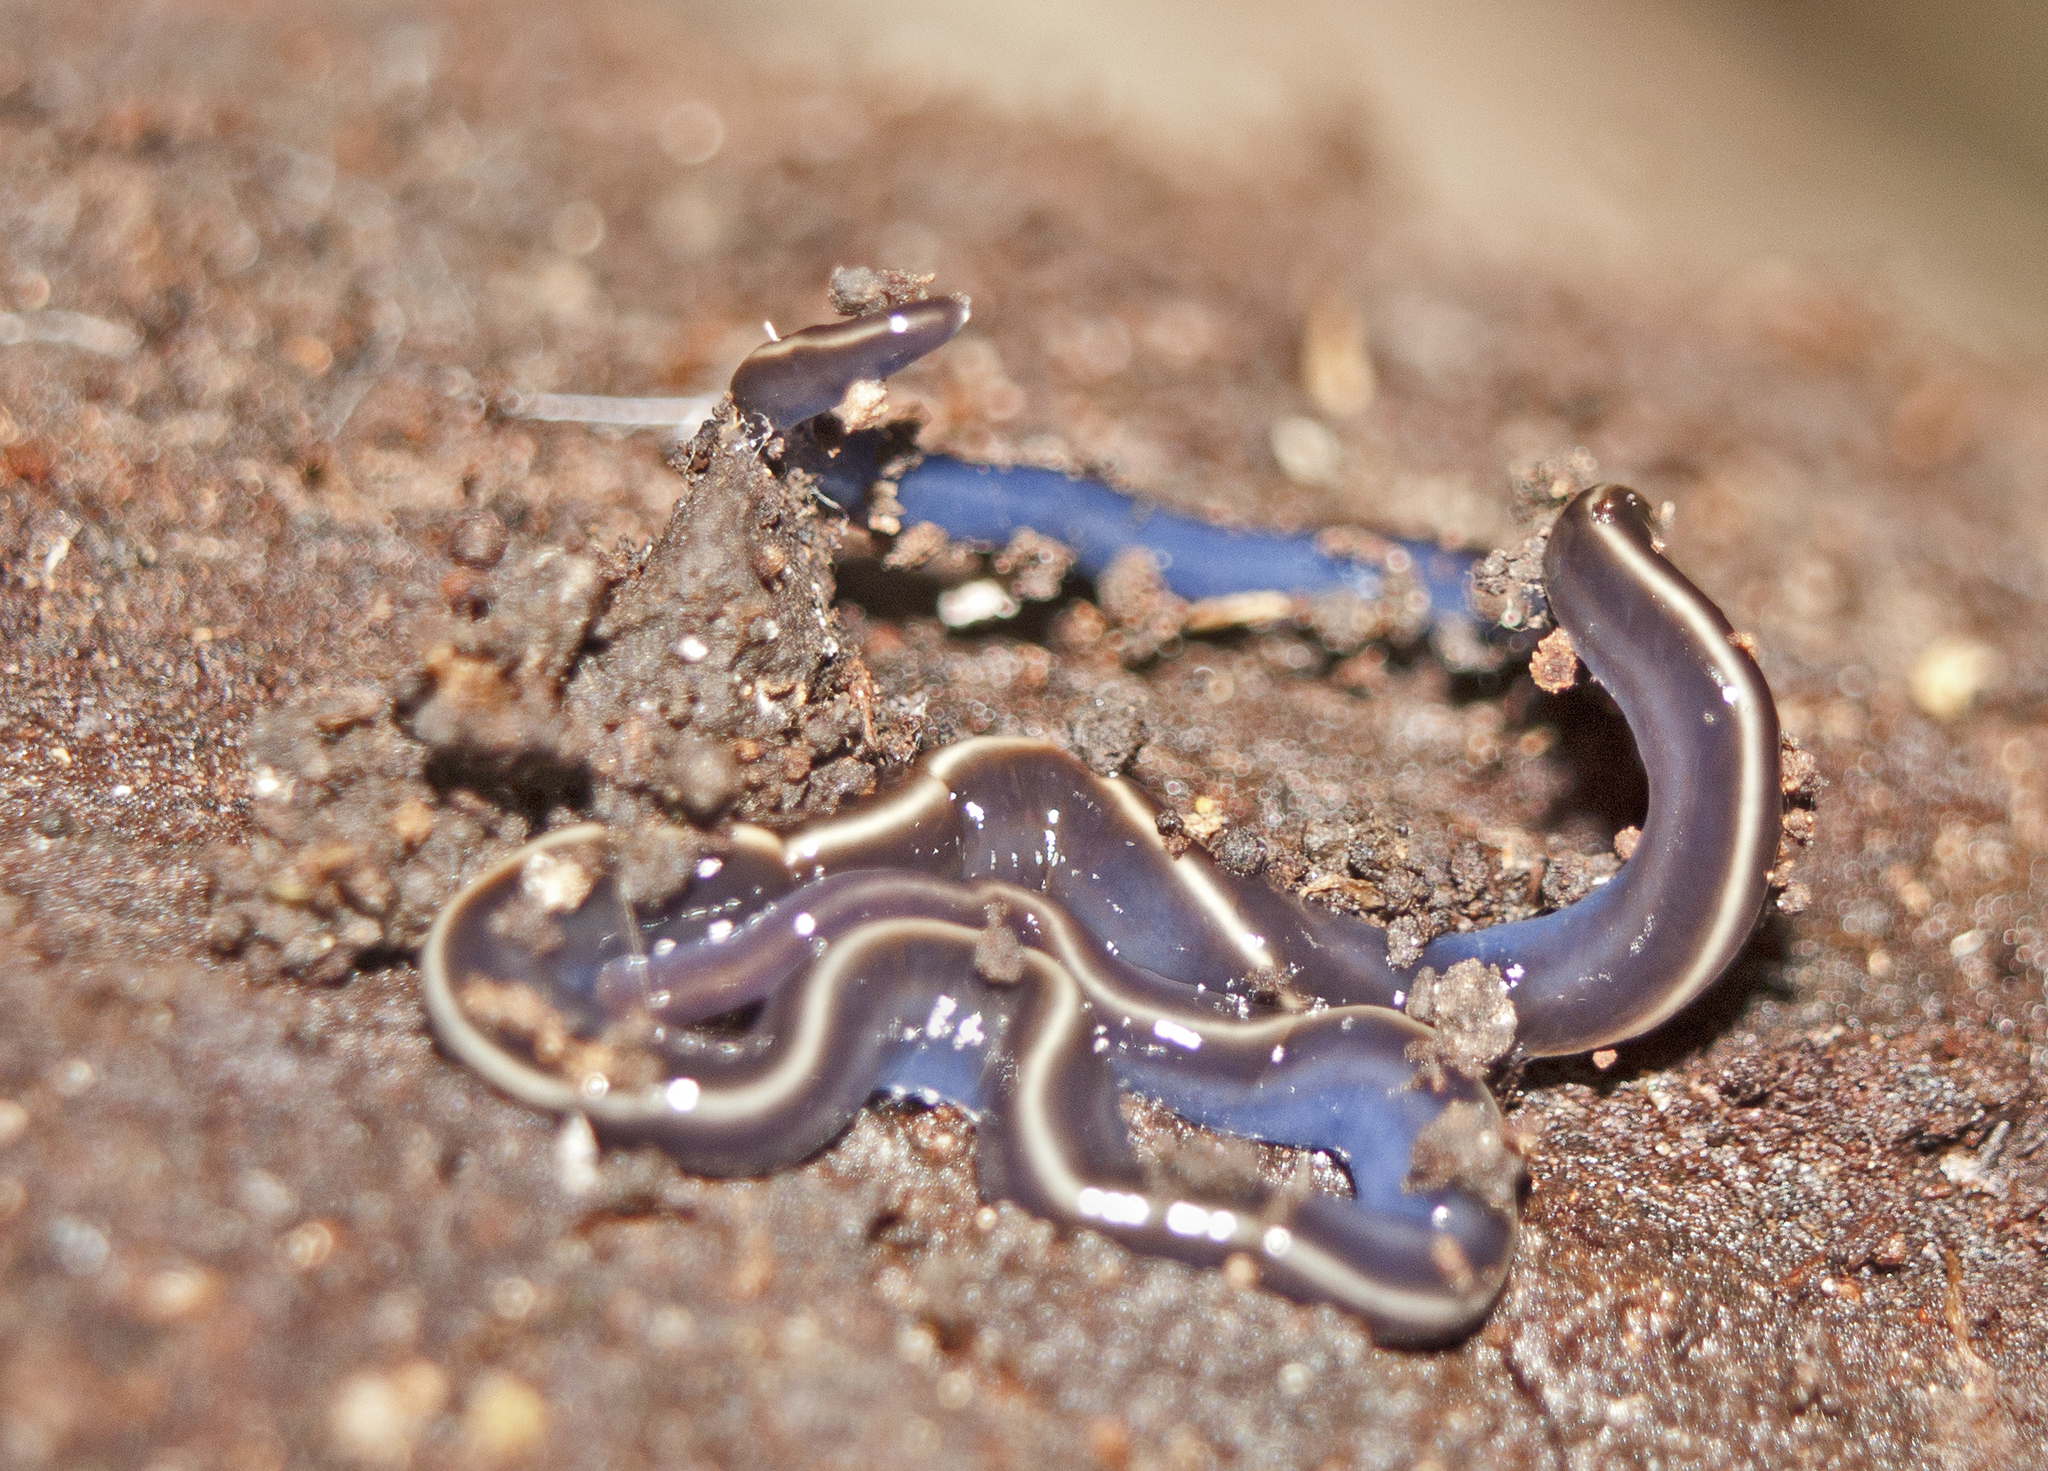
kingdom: Animalia
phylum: Platyhelminthes
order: Tricladida
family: Geoplanidae
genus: Caenoplana
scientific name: Caenoplana coerulea
